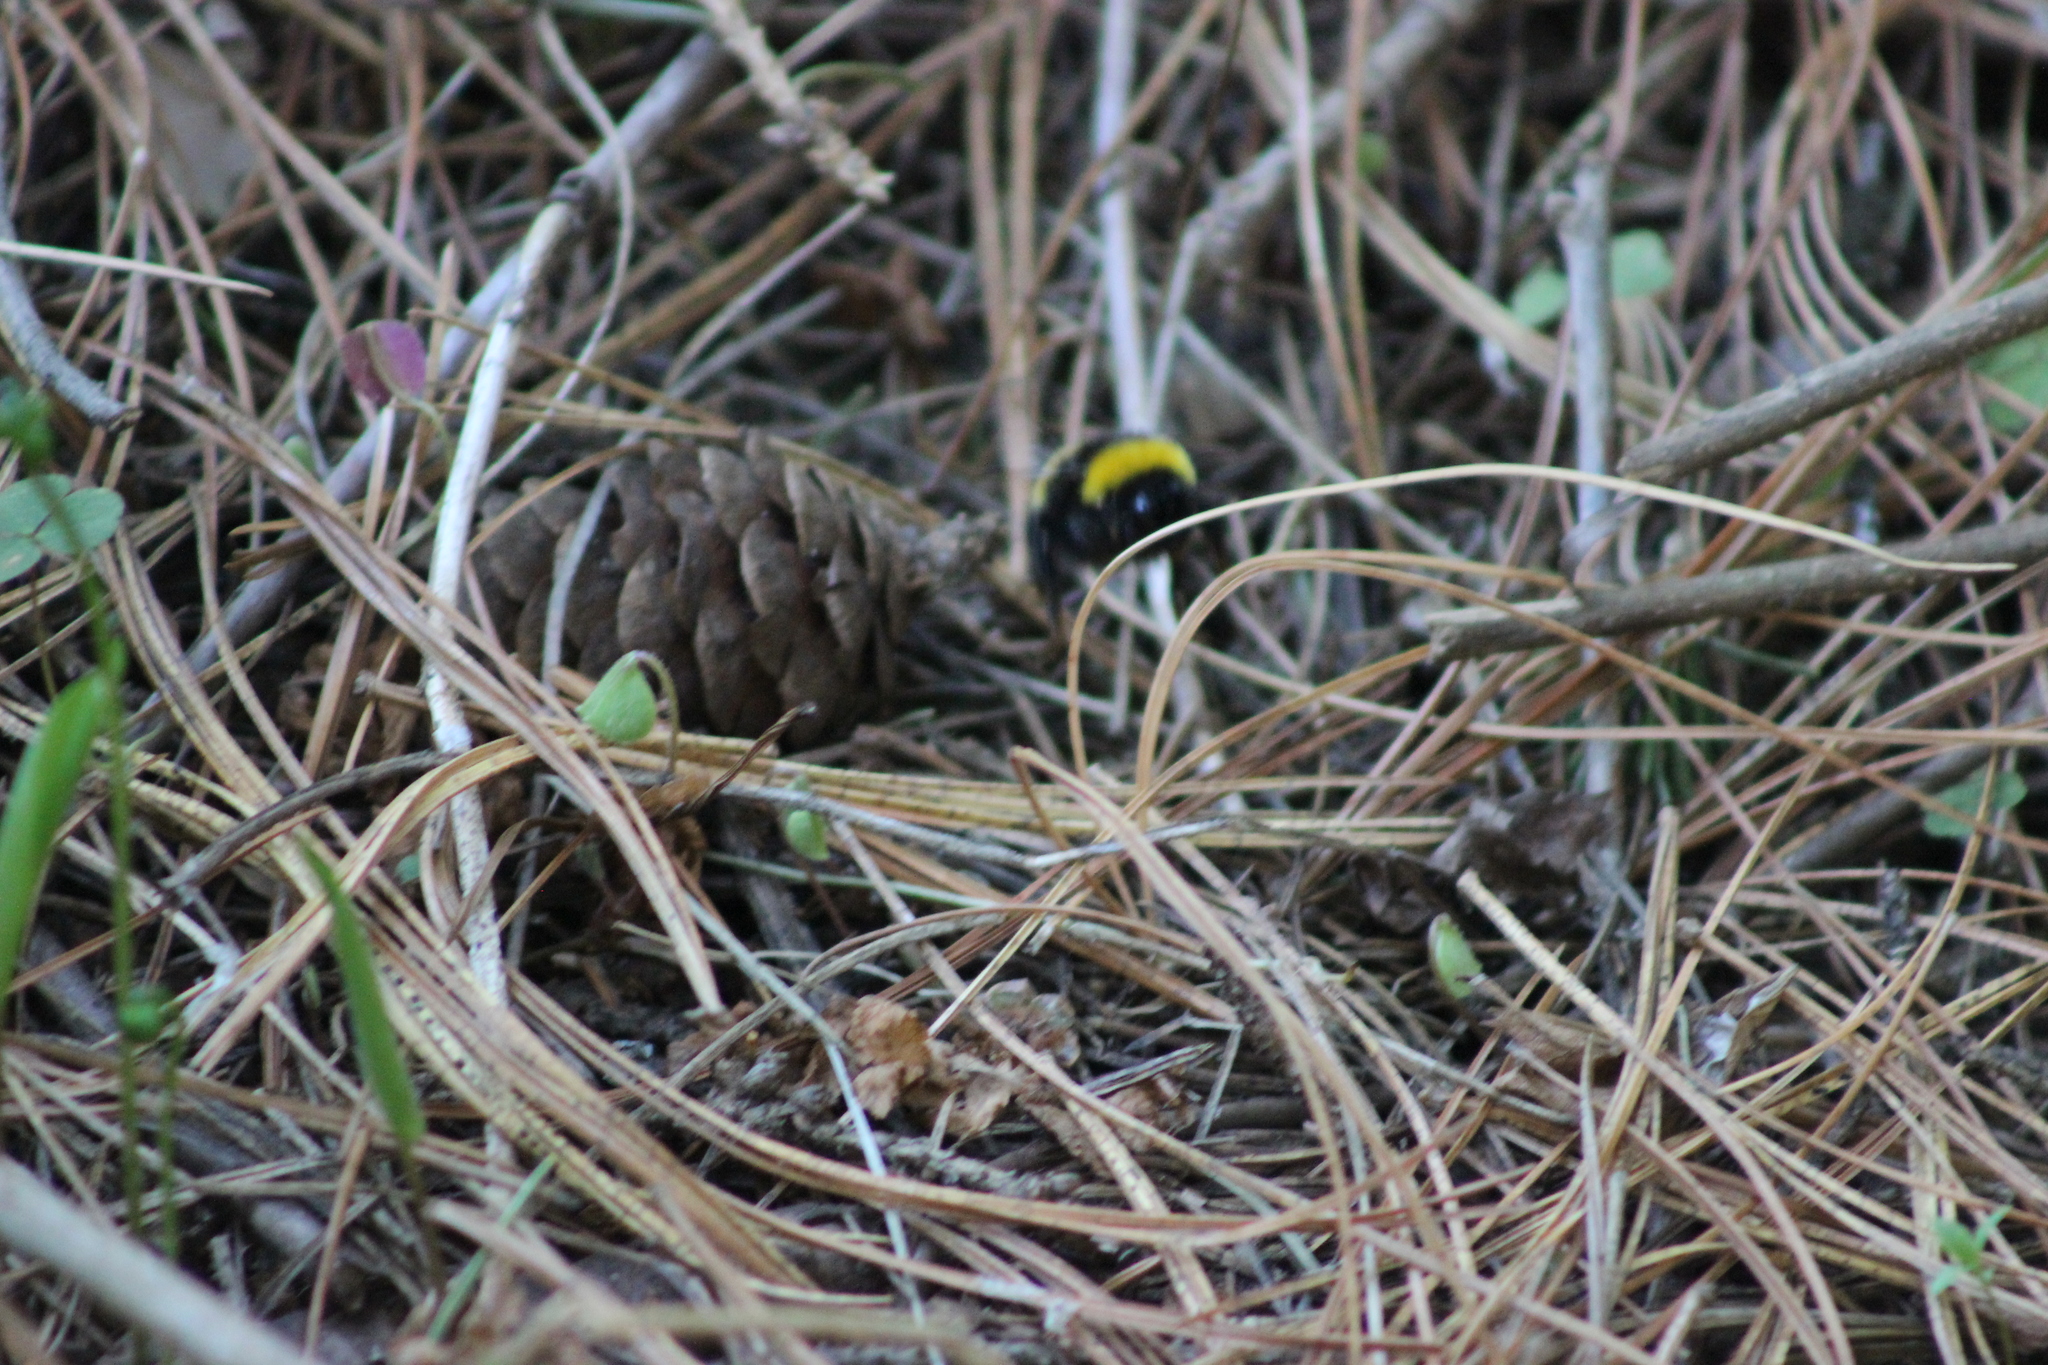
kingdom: Animalia
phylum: Arthropoda
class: Insecta
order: Hymenoptera
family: Apidae
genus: Bombus
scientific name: Bombus lucorum
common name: White-tailed bumblebee
